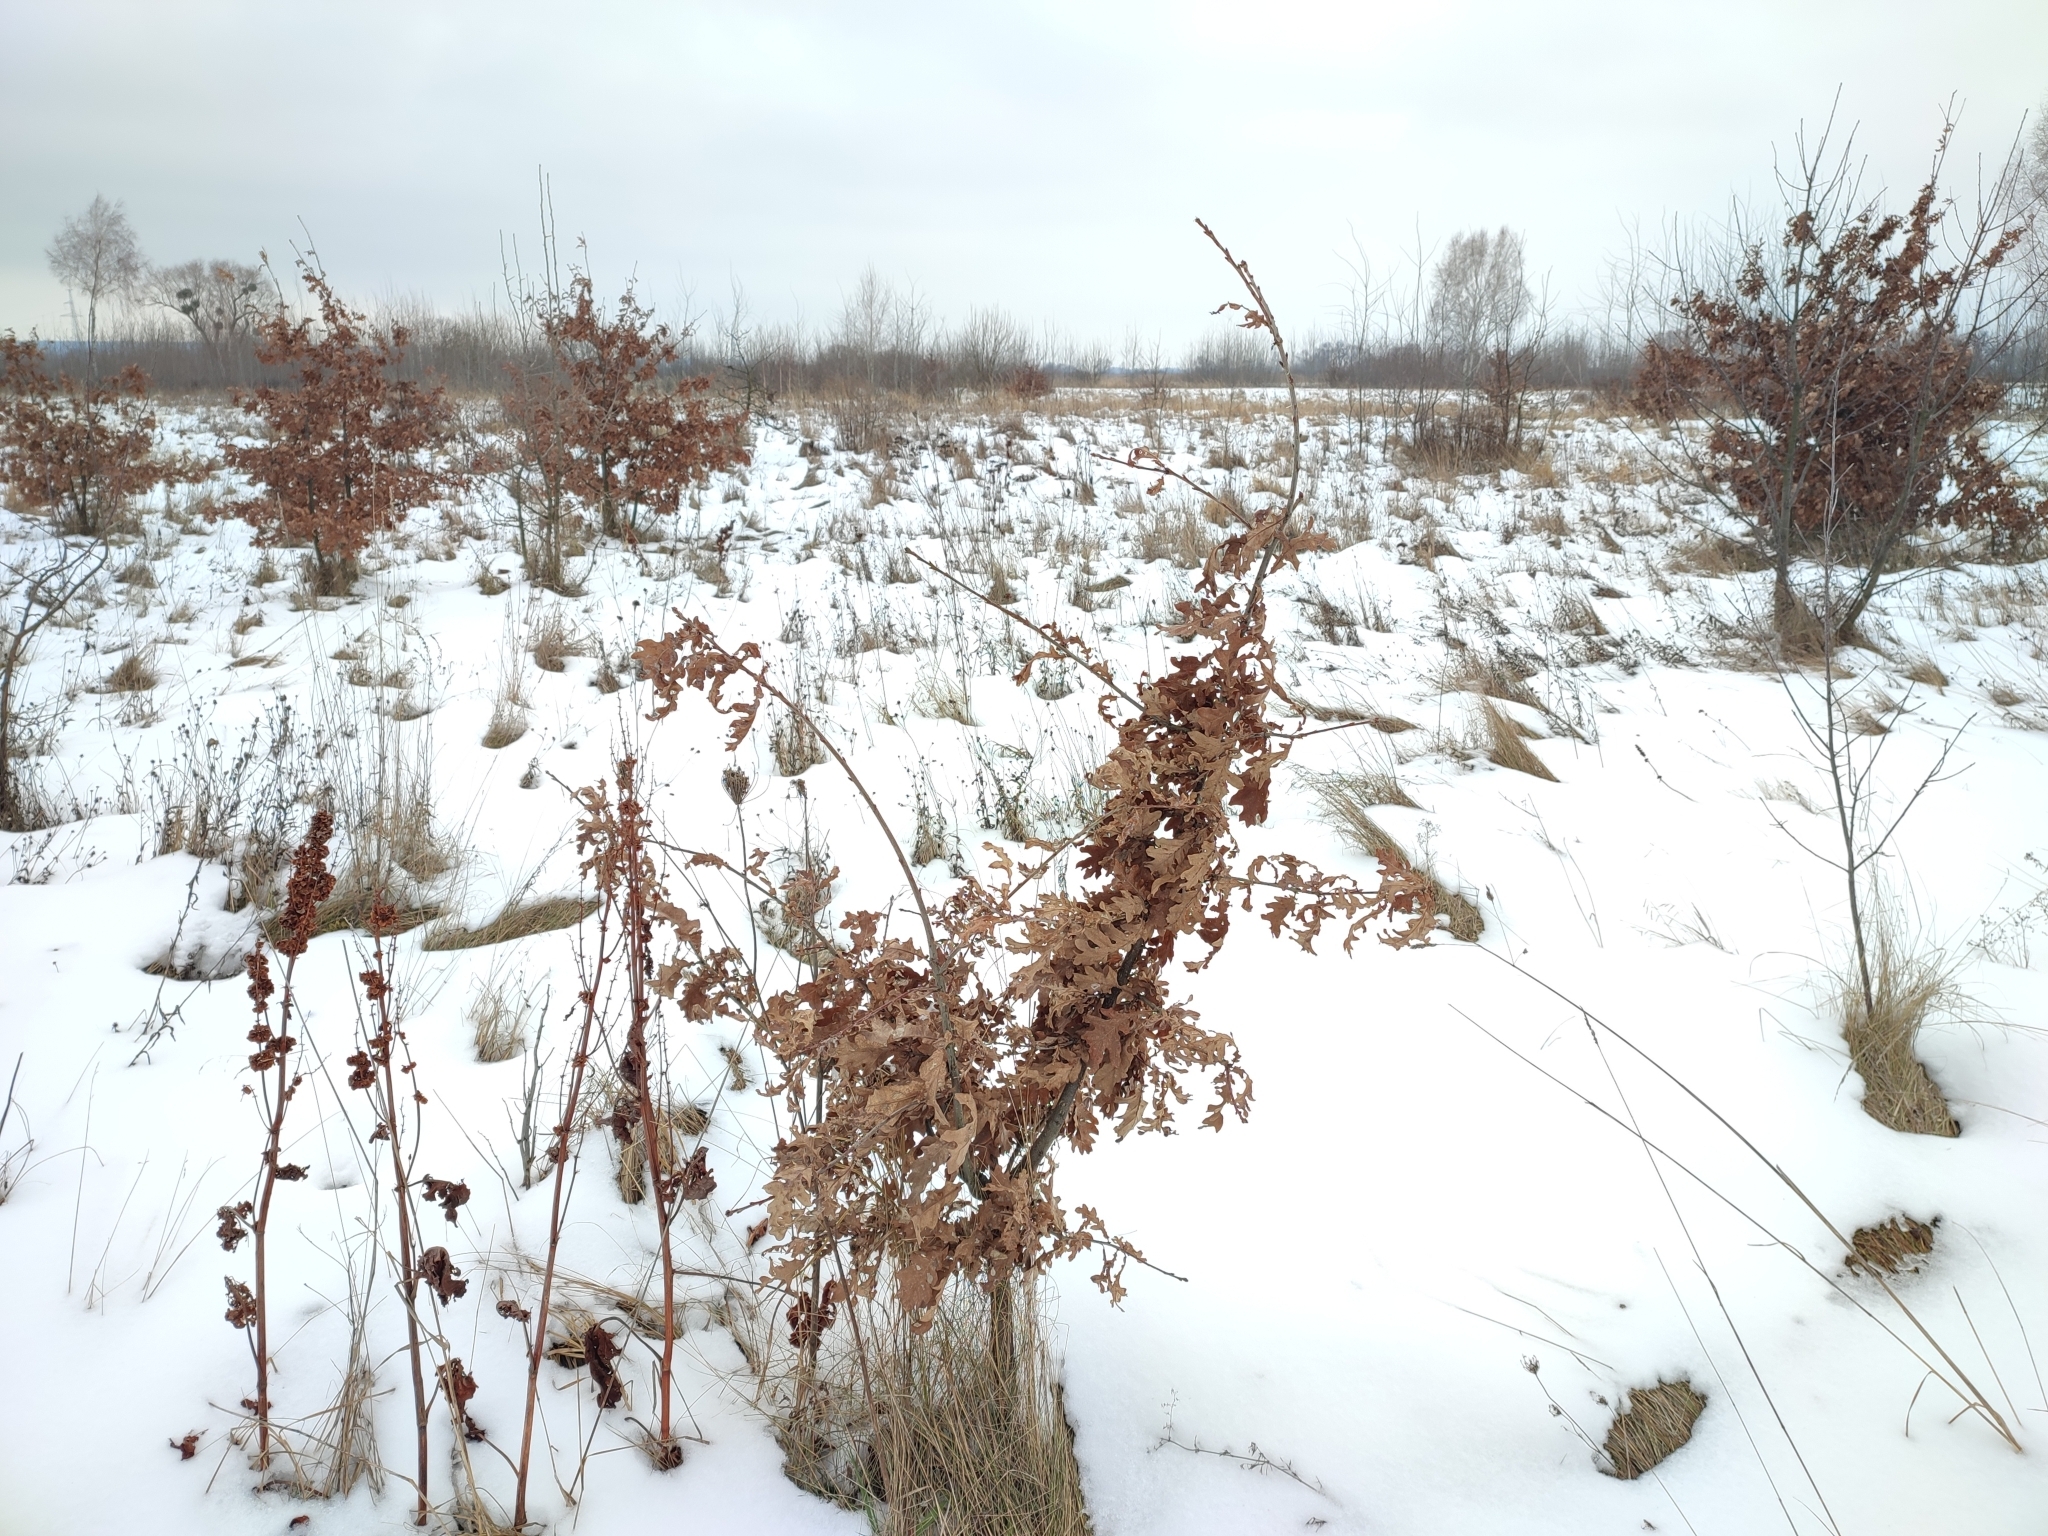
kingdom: Plantae
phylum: Tracheophyta
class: Magnoliopsida
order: Fagales
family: Fagaceae
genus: Quercus
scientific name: Quercus robur
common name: Pedunculate oak
